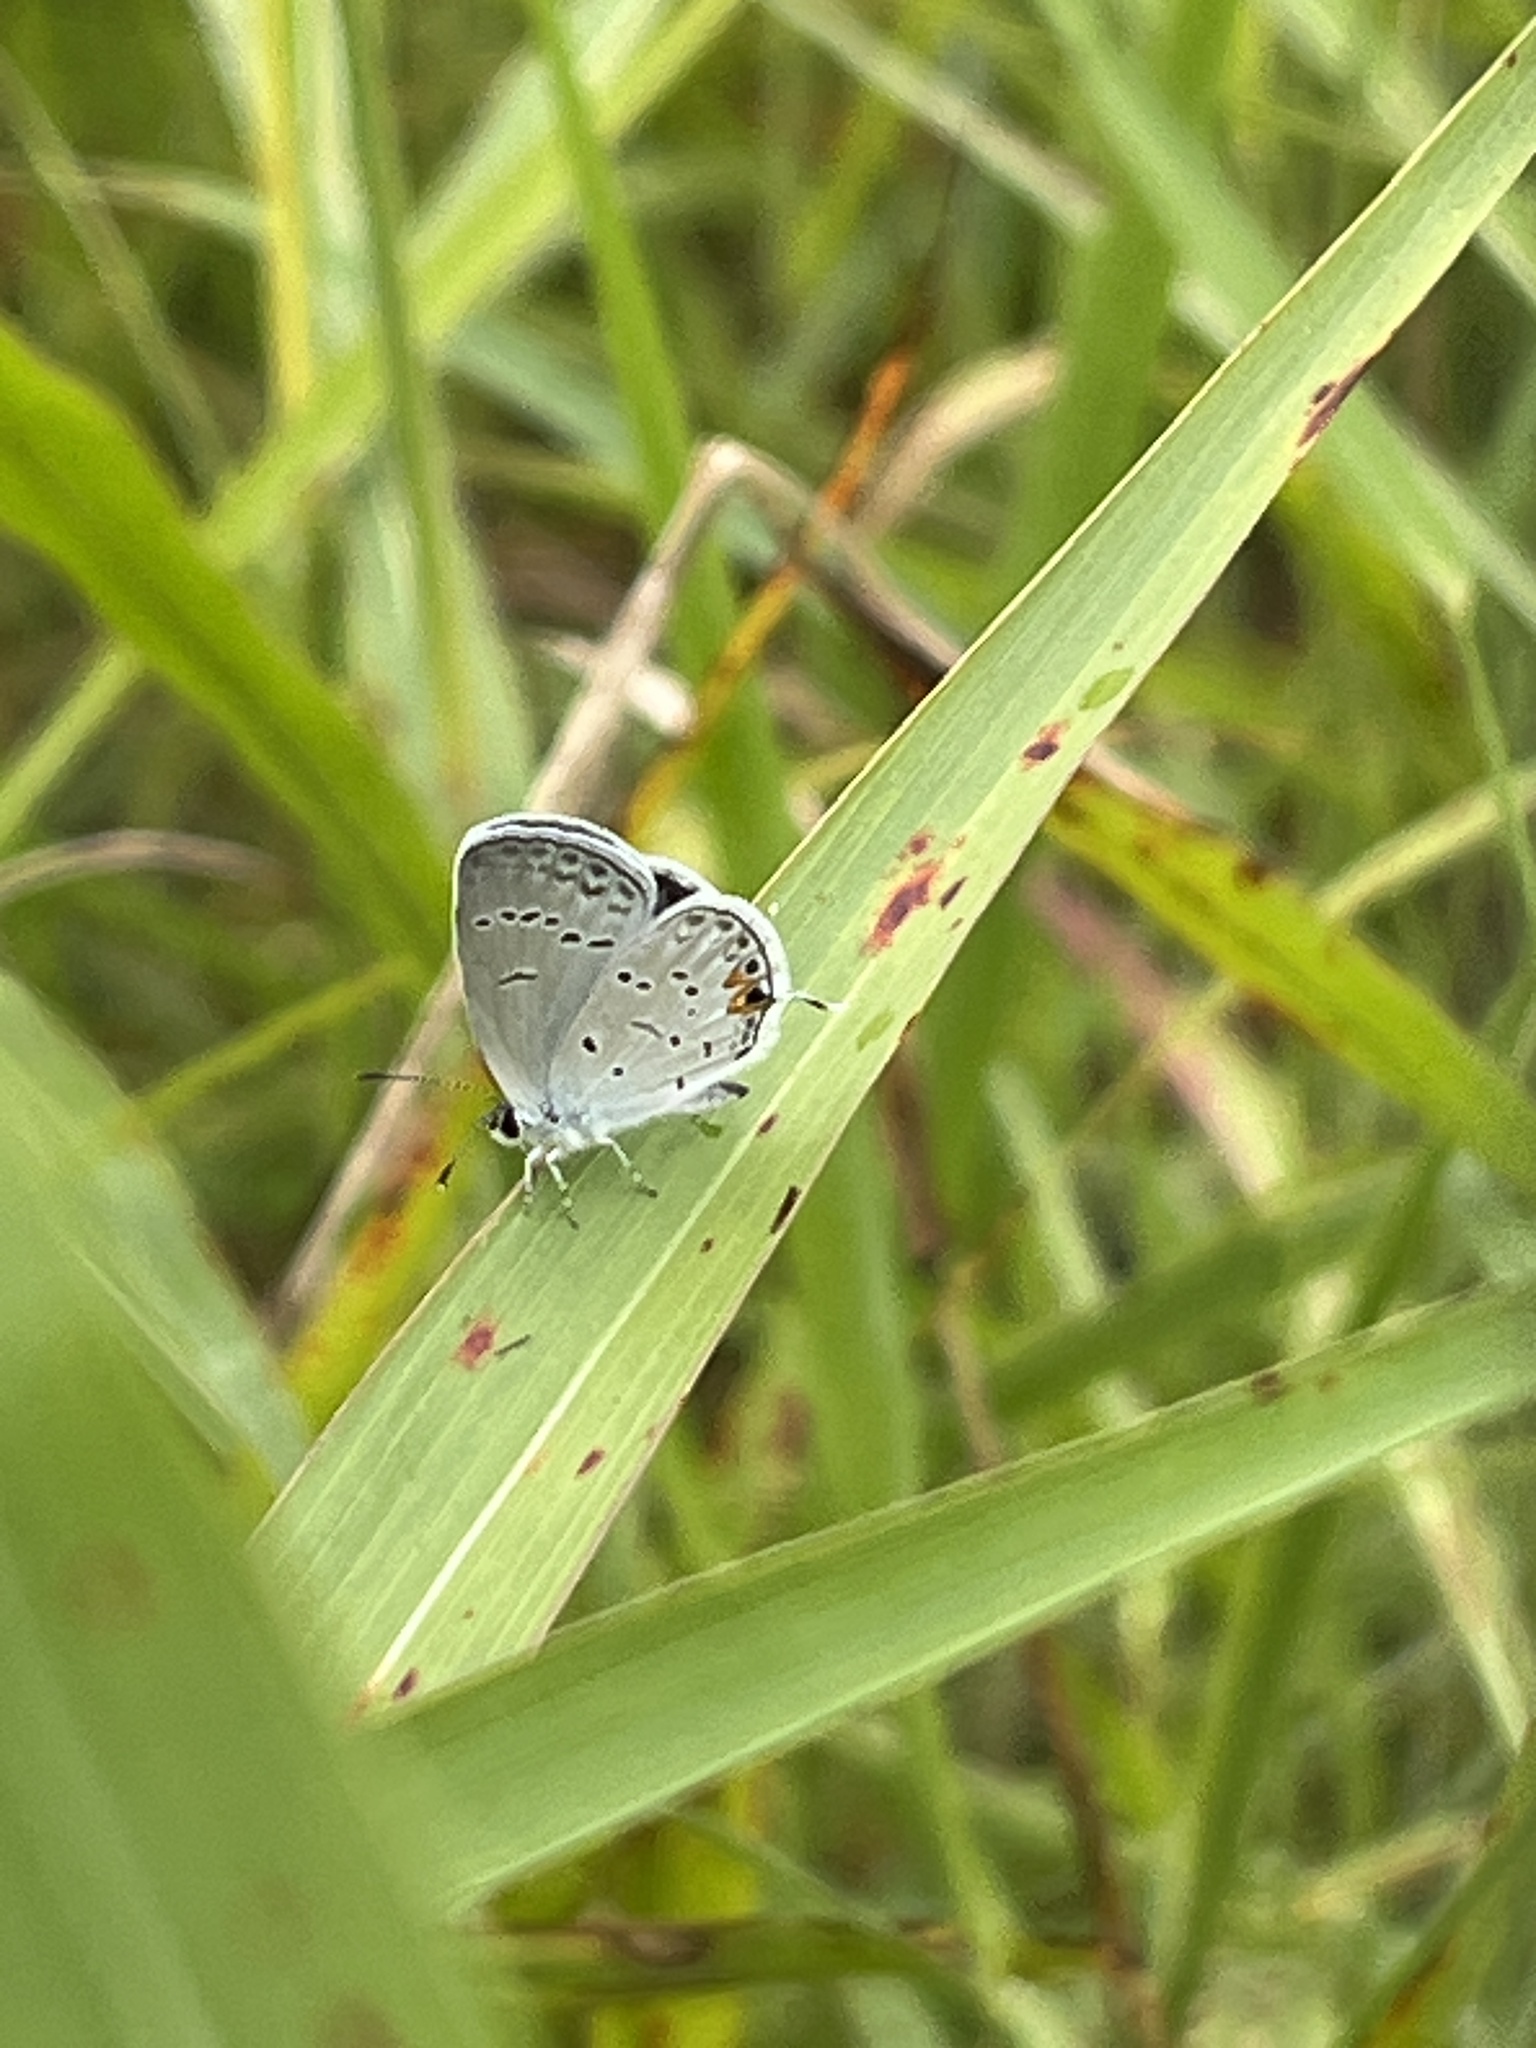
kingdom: Animalia
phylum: Arthropoda
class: Insecta
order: Lepidoptera
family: Lycaenidae
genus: Elkalyce
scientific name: Elkalyce comyntas
